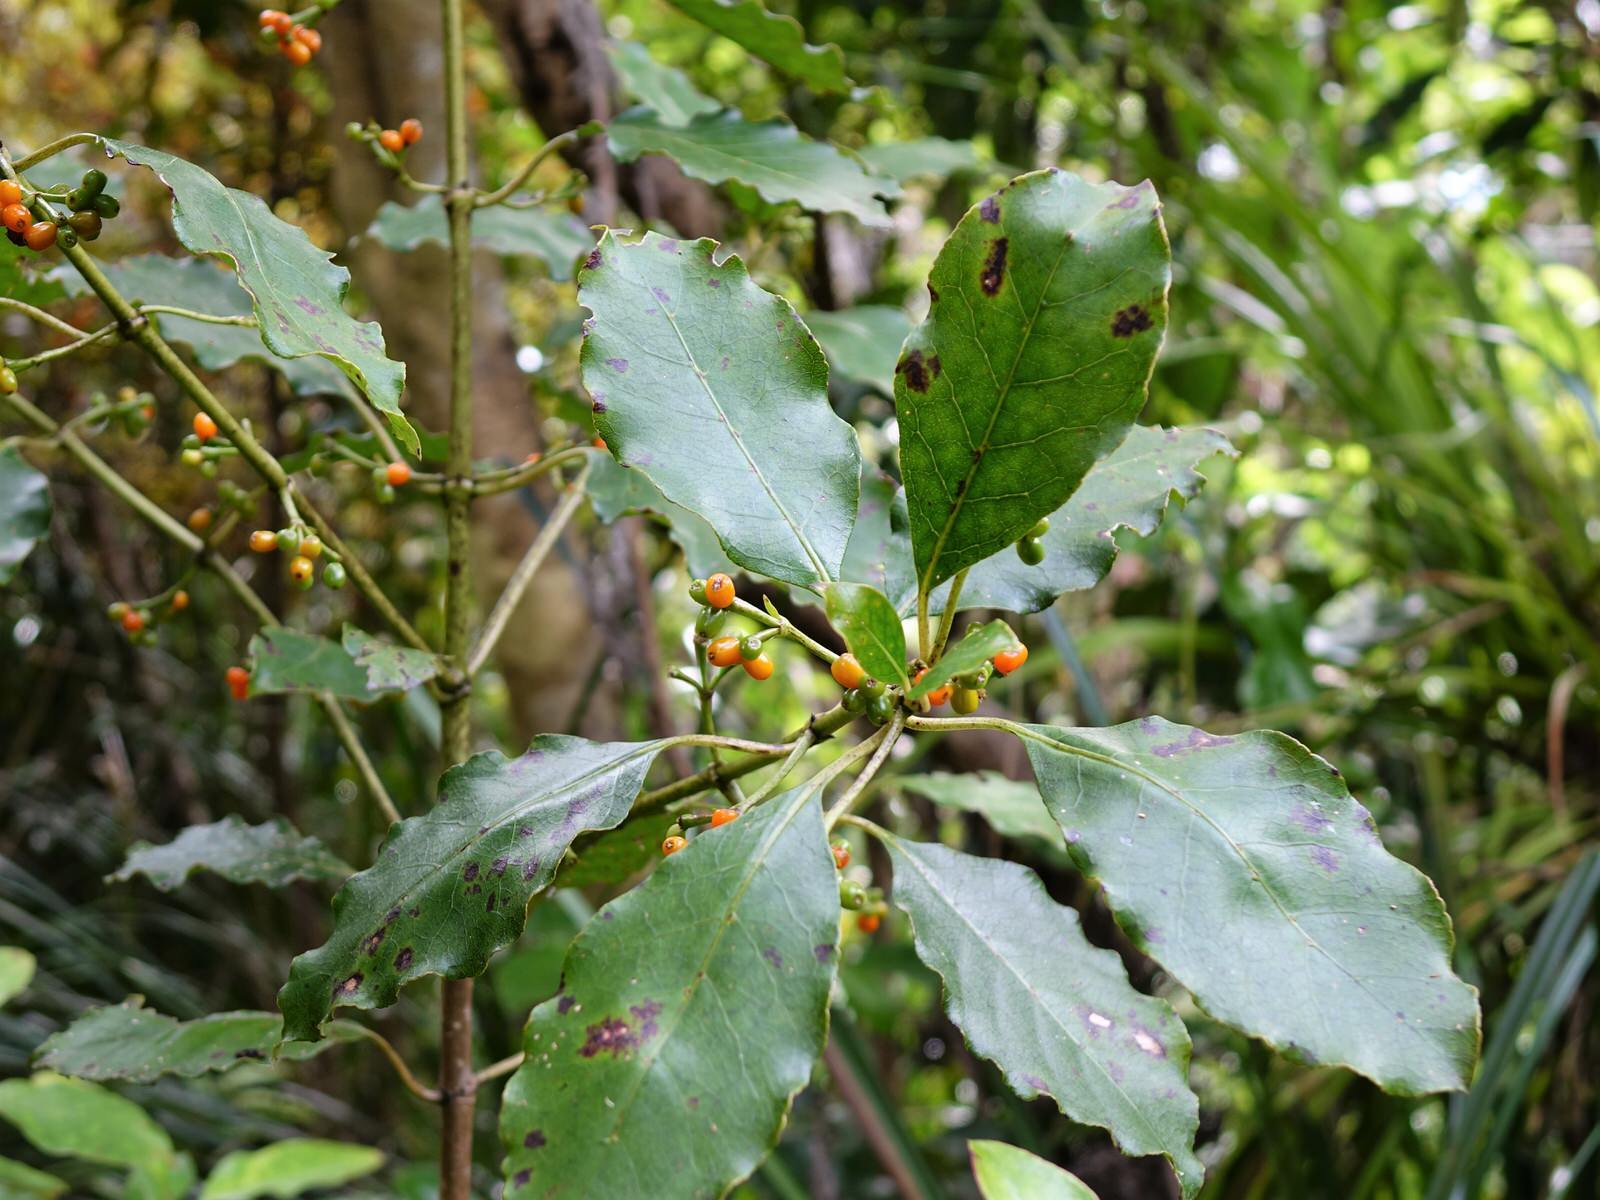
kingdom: Plantae
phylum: Tracheophyta
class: Magnoliopsida
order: Gentianales
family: Rubiaceae
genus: Coprosma
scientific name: Coprosma autumnalis
